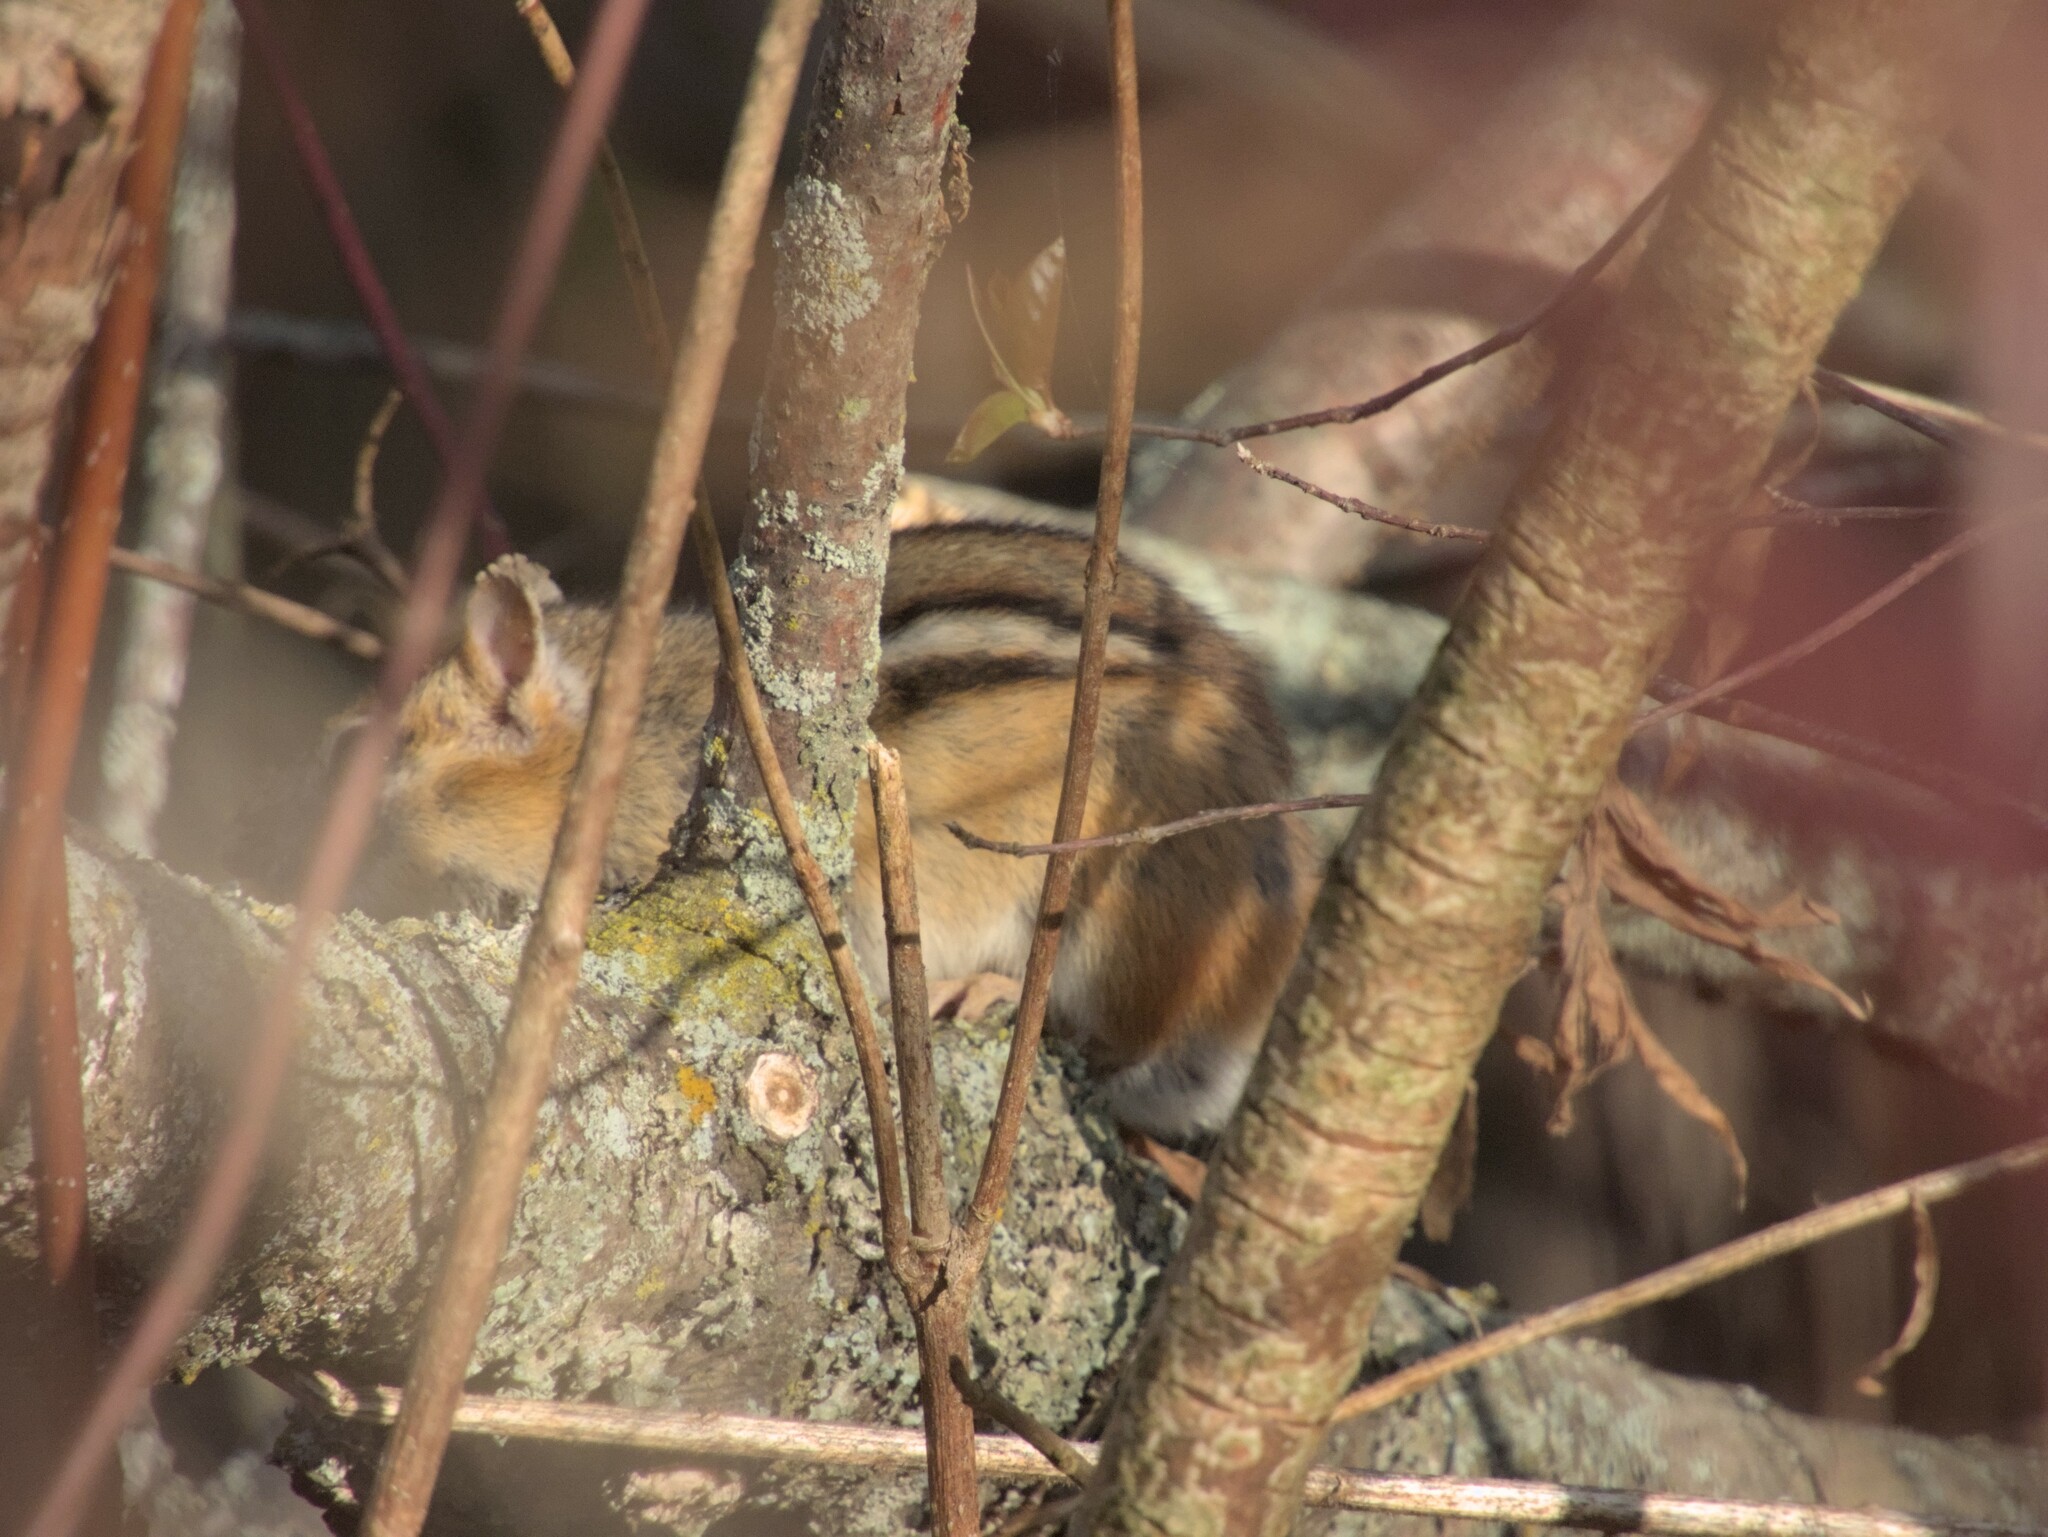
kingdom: Animalia
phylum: Chordata
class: Mammalia
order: Rodentia
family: Sciuridae
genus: Tamias
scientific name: Tamias striatus
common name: Eastern chipmunk
